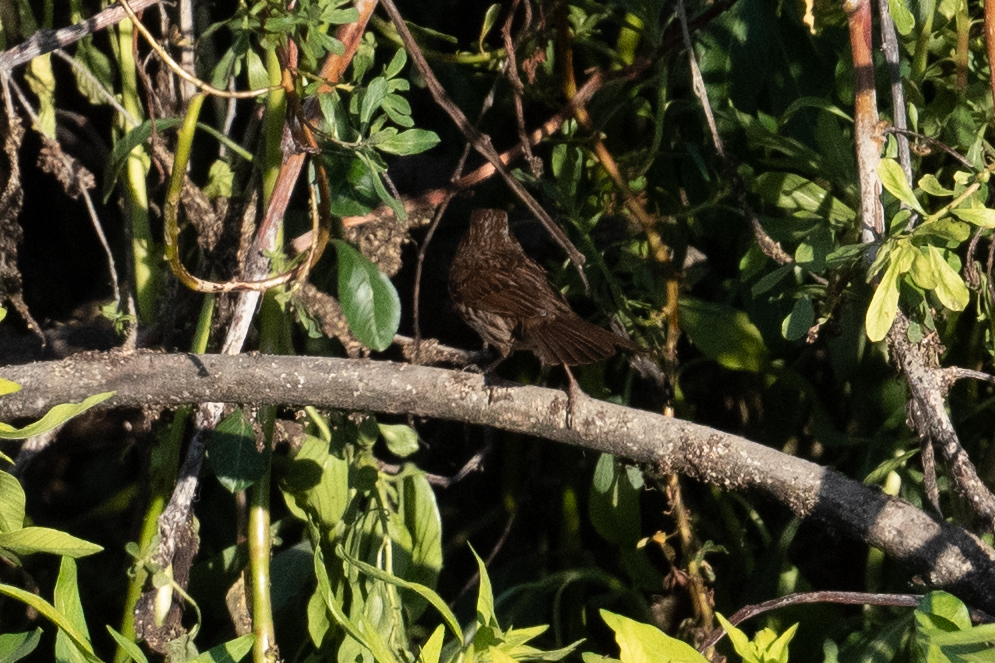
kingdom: Animalia
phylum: Chordata
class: Aves
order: Passeriformes
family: Passerellidae
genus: Melospiza
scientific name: Melospiza melodia
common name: Song sparrow
